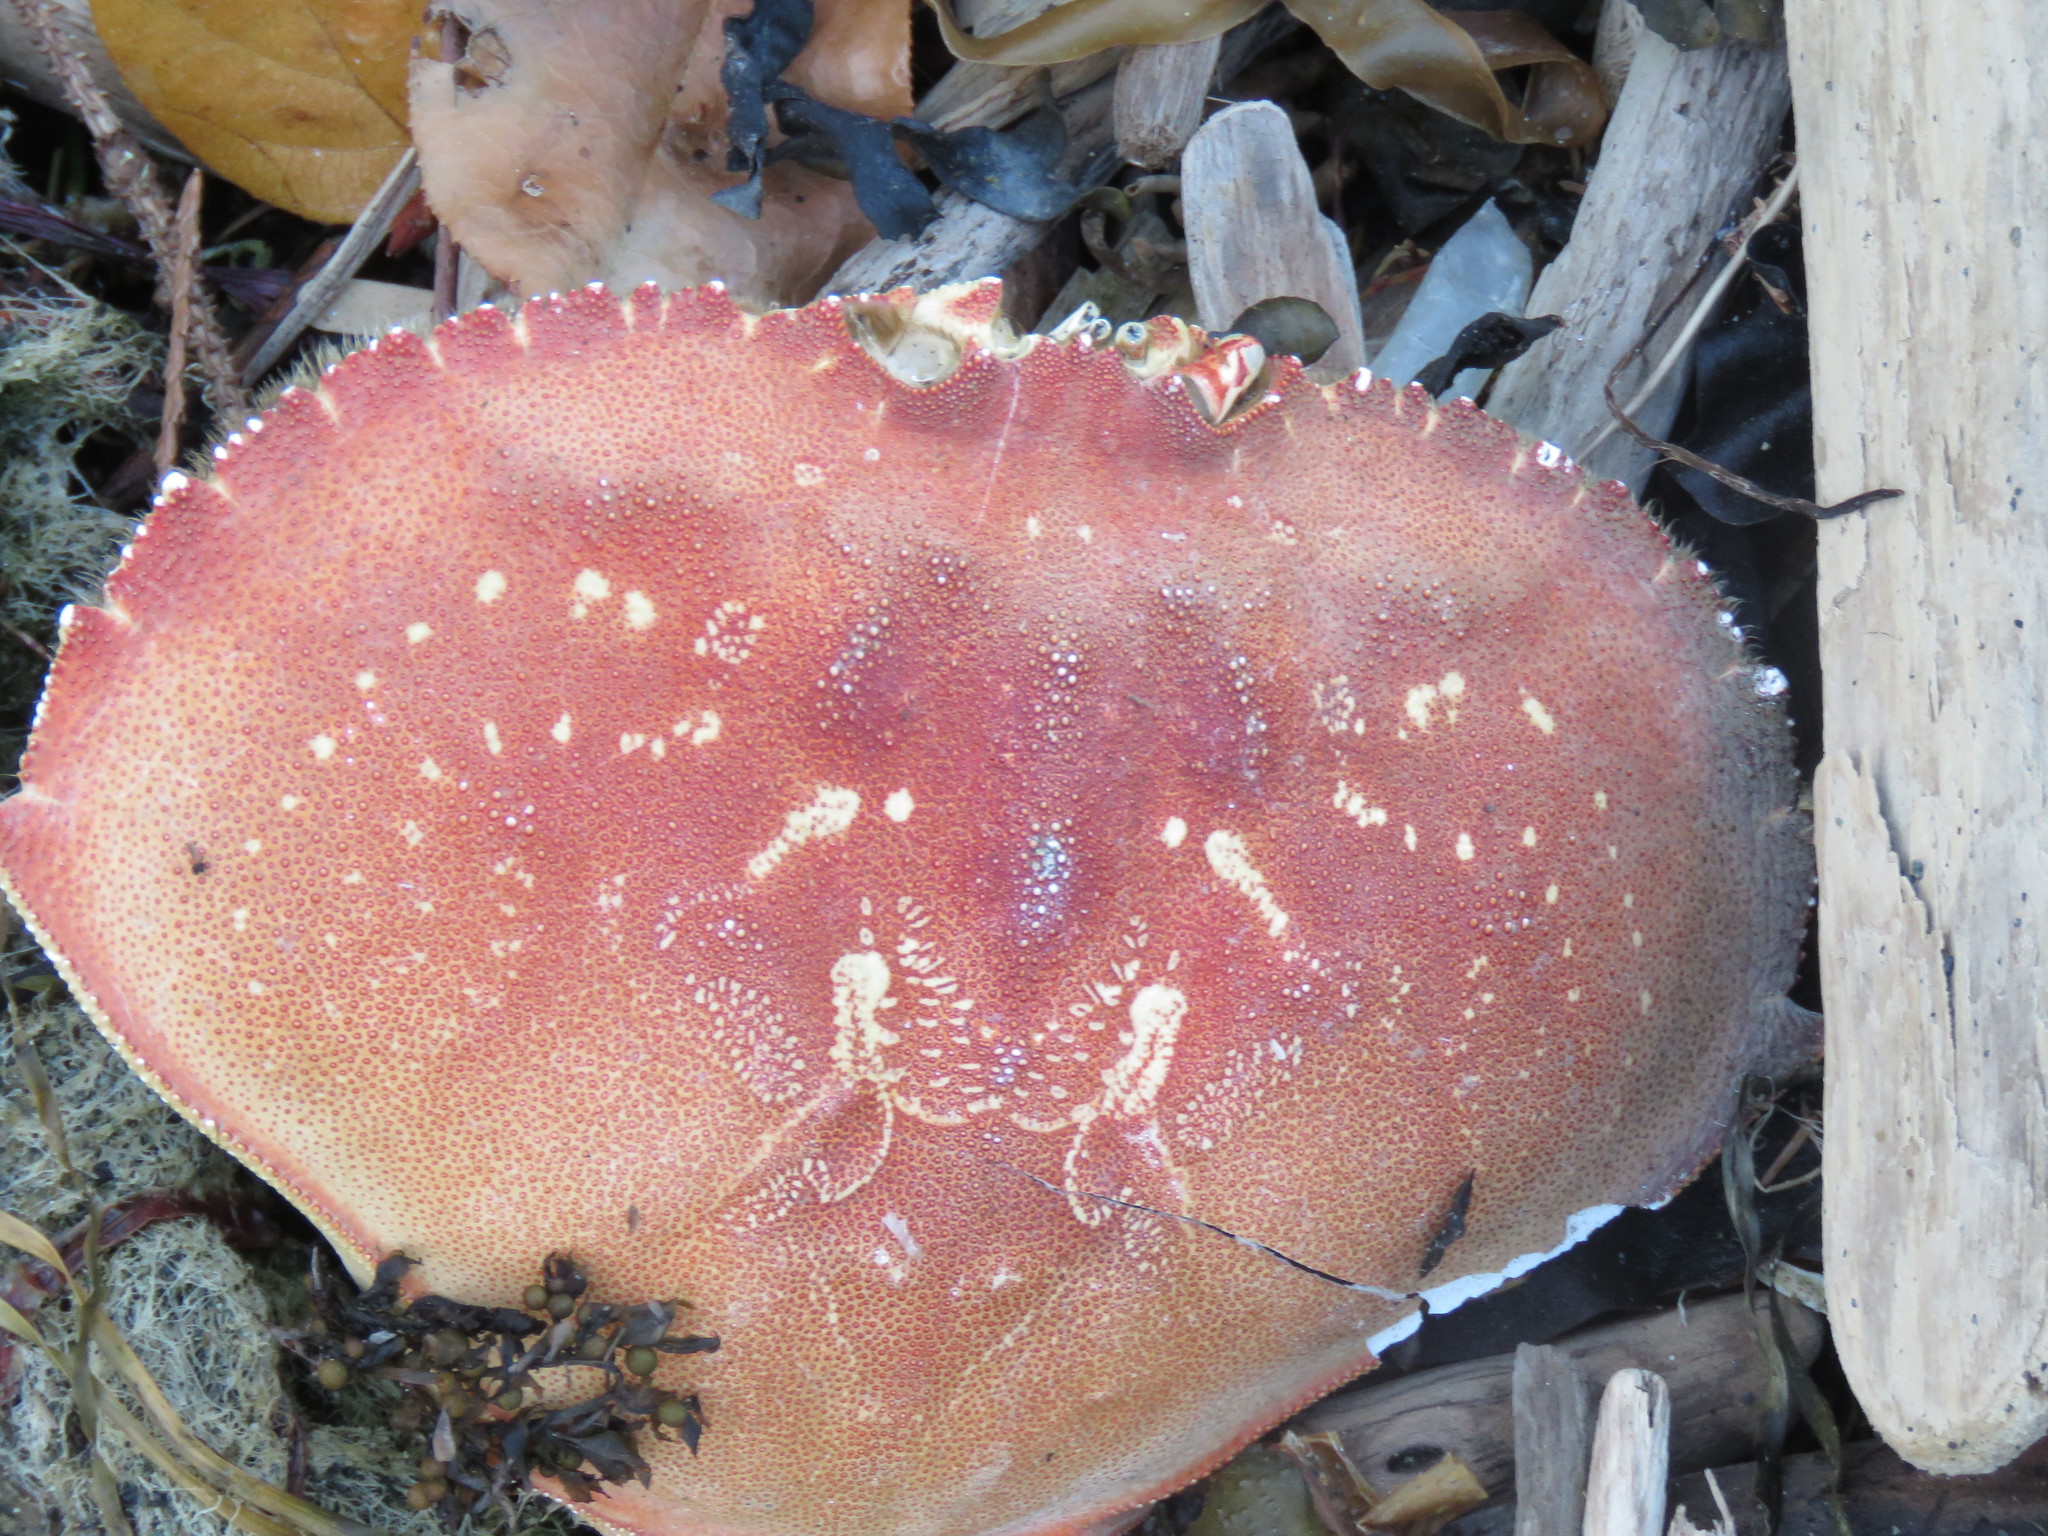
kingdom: Animalia
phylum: Arthropoda
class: Malacostraca
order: Decapoda
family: Cancridae
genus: Metacarcinus
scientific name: Metacarcinus magister
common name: Californian crab
